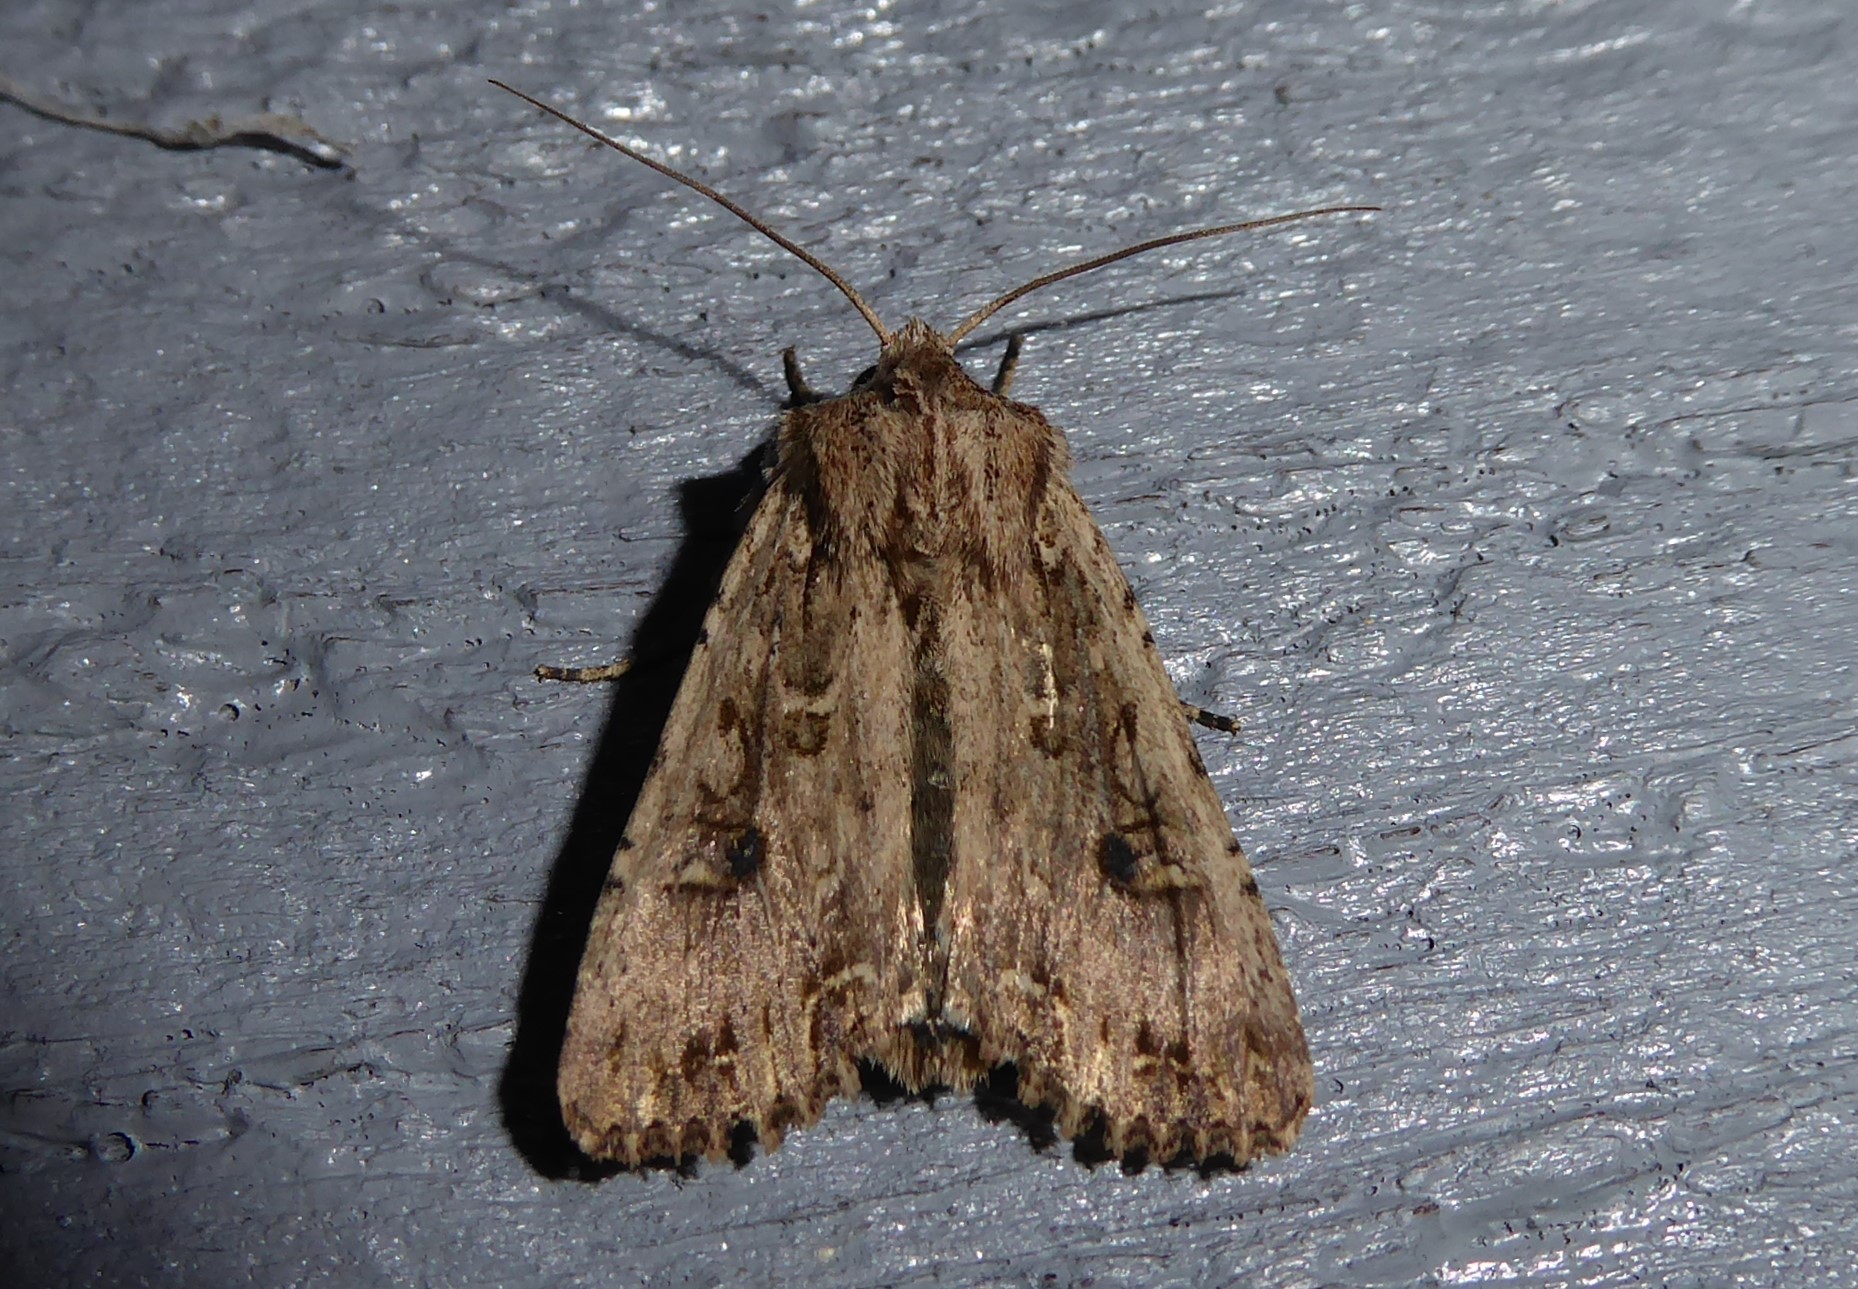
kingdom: Animalia
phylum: Arthropoda
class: Insecta
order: Lepidoptera
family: Noctuidae
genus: Ichneutica
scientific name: Ichneutica lignana
